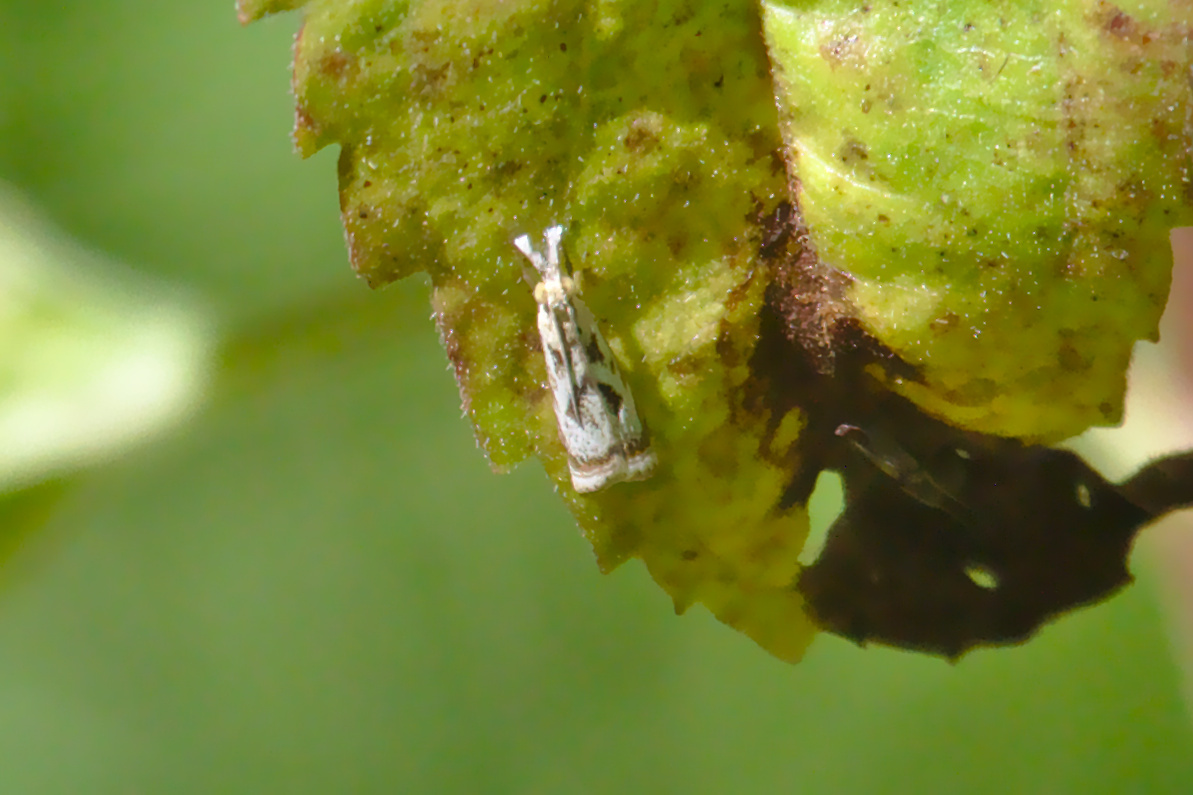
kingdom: Animalia
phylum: Arthropoda
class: Insecta
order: Lepidoptera
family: Crambidae
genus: Microcrambus
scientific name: Microcrambus elegans
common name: Elegant grass-veneer
